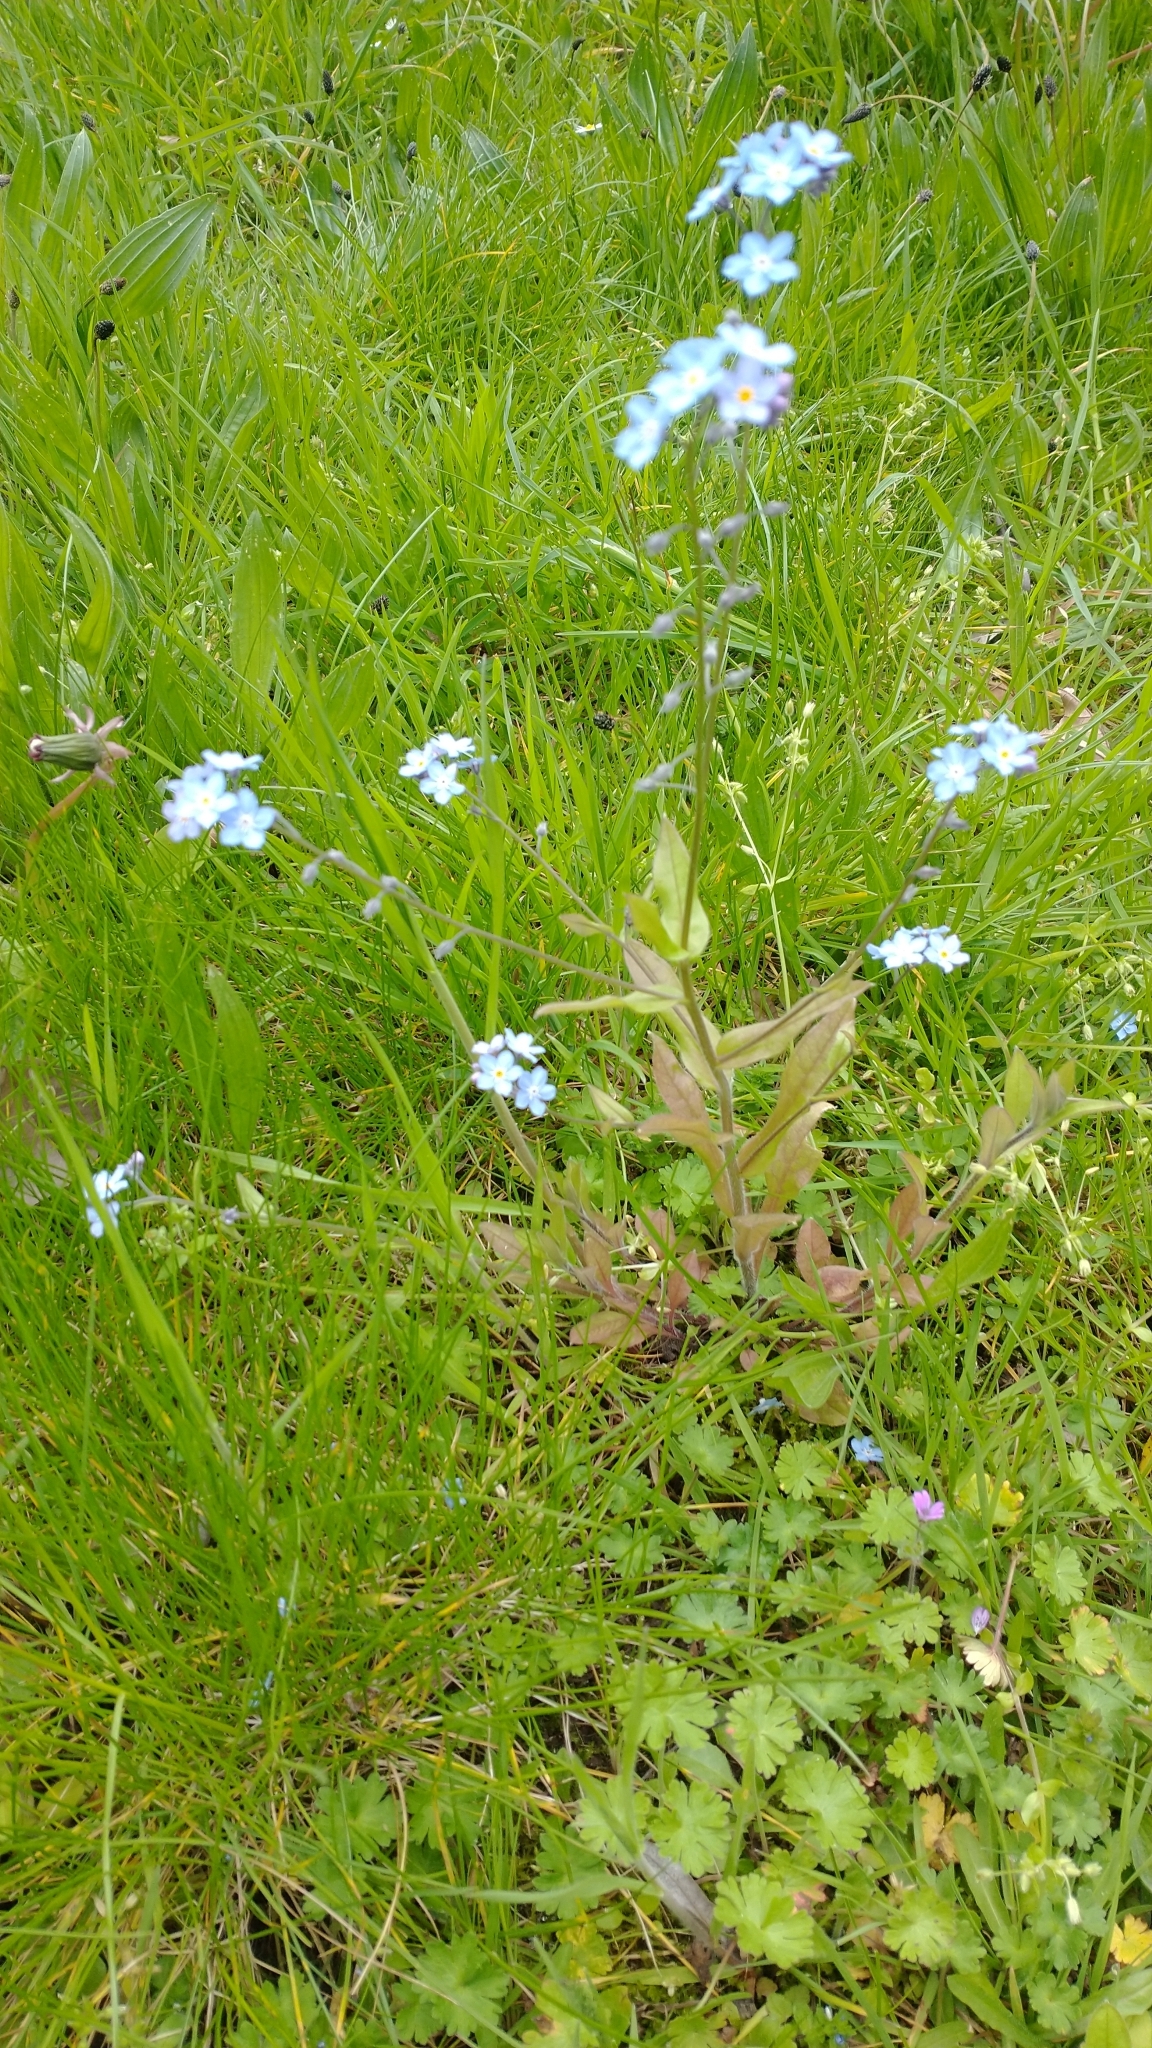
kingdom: Plantae
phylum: Tracheophyta
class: Magnoliopsida
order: Boraginales
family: Boraginaceae
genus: Myosotis
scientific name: Myosotis sylvatica
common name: Wood forget-me-not
